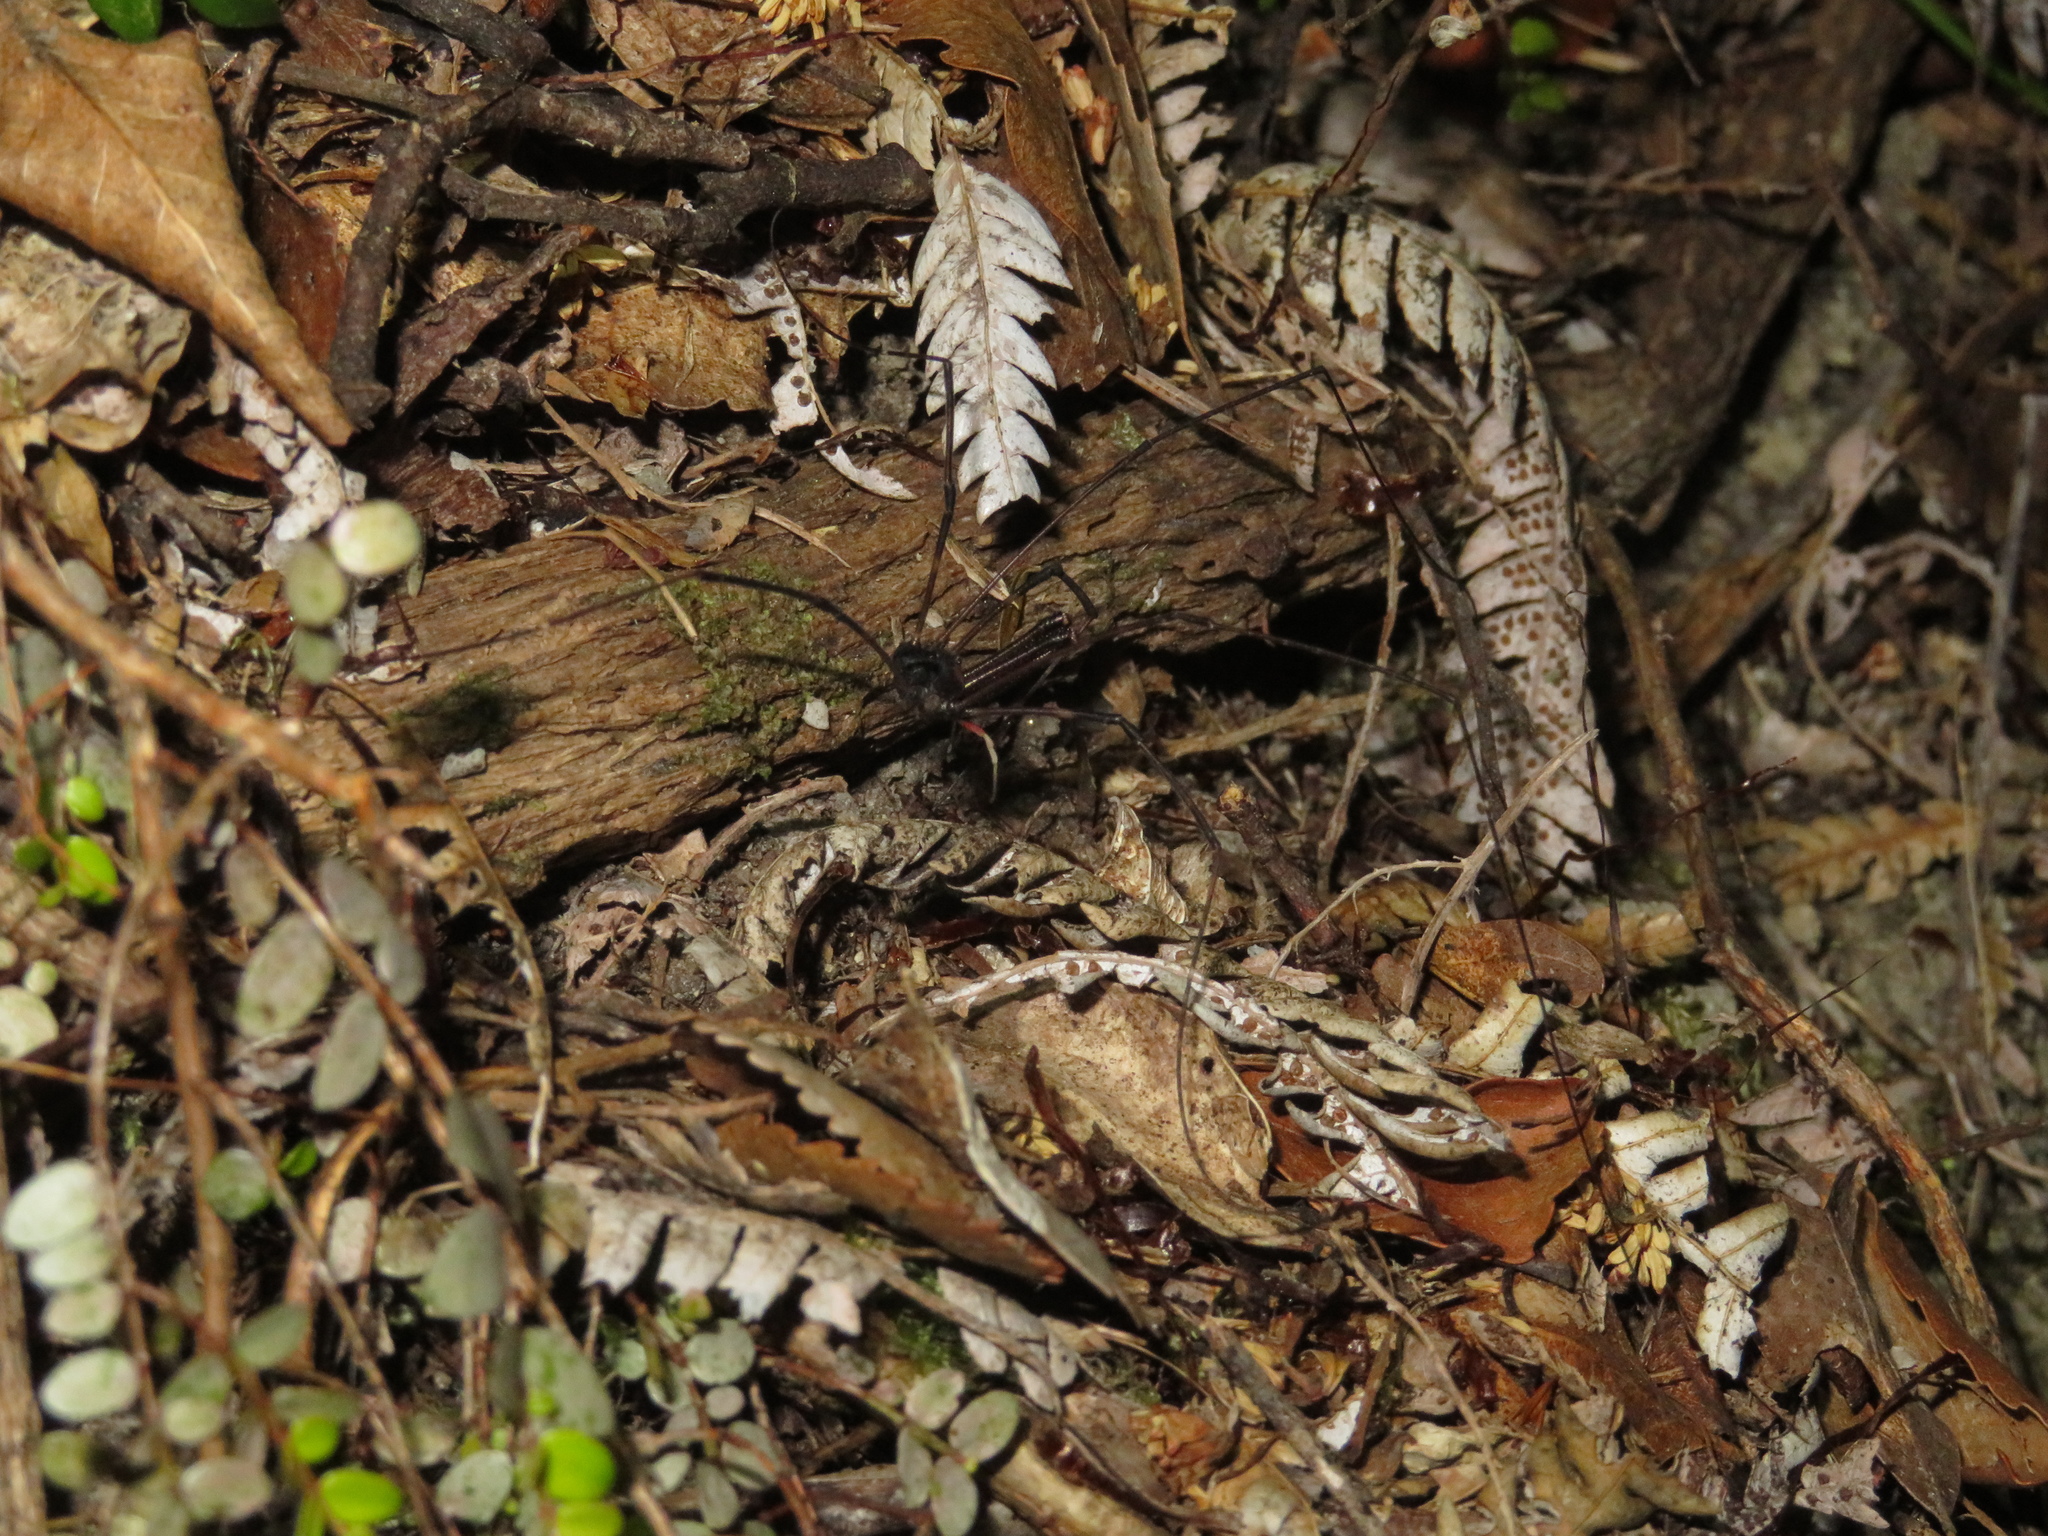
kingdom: Animalia
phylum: Arthropoda
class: Arachnida
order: Opiliones
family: Neopilionidae
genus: Forsteropsalis
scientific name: Forsteropsalis inconstans
